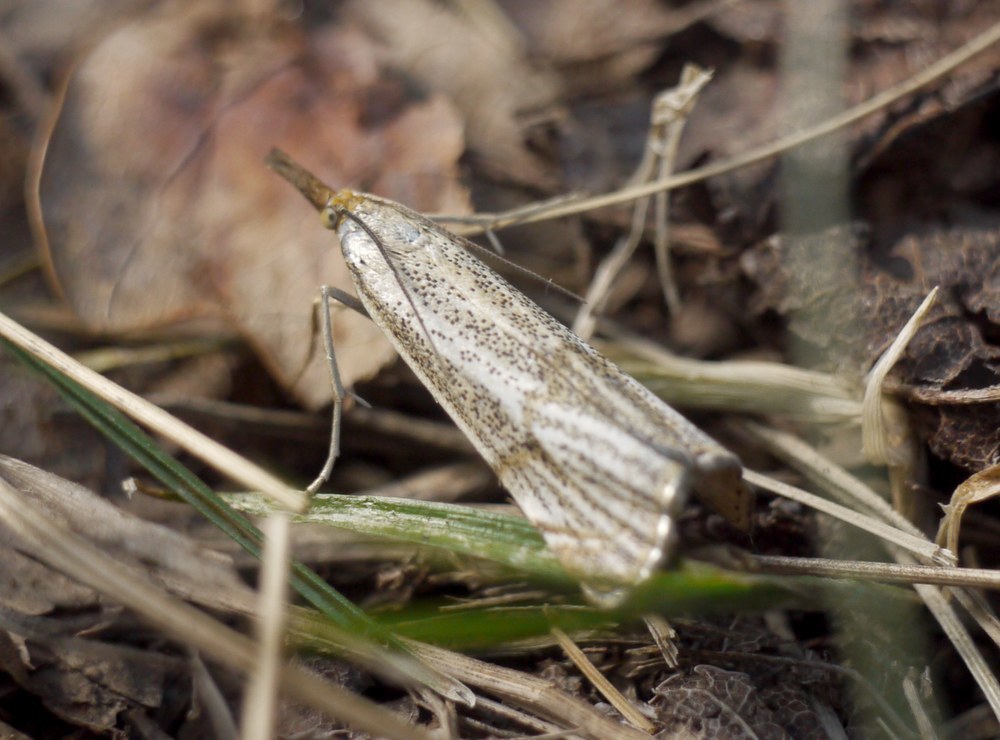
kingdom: Animalia
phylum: Arthropoda
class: Insecta
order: Lepidoptera
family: Crambidae
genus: Thisanotia
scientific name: Thisanotia chrysonuchella
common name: Powdered grass-veneer
